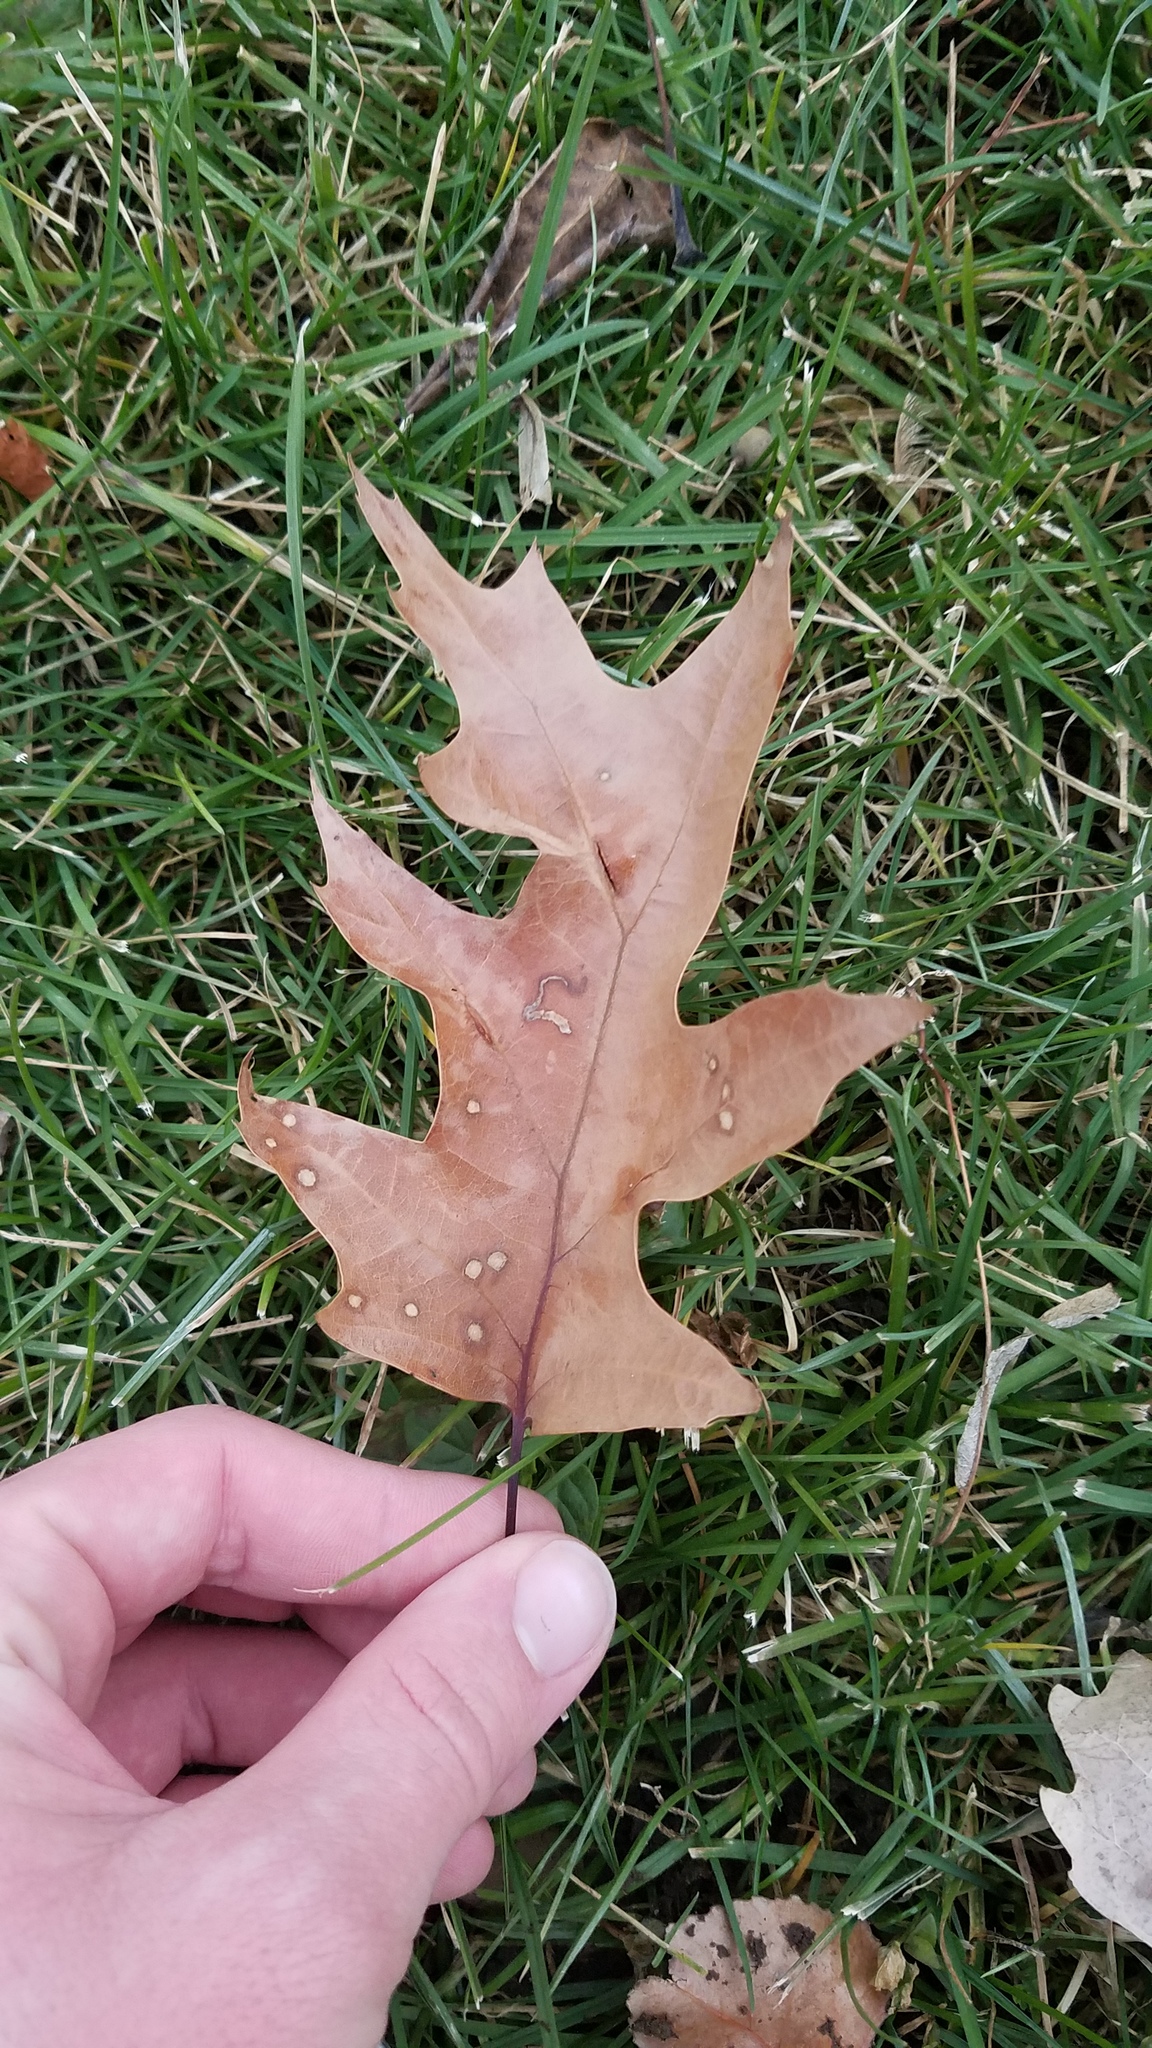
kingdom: Fungi
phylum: Ascomycota
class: Sordariomycetes
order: Diaporthales
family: Tubakiaceae
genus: Tubakia
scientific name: Tubakia
